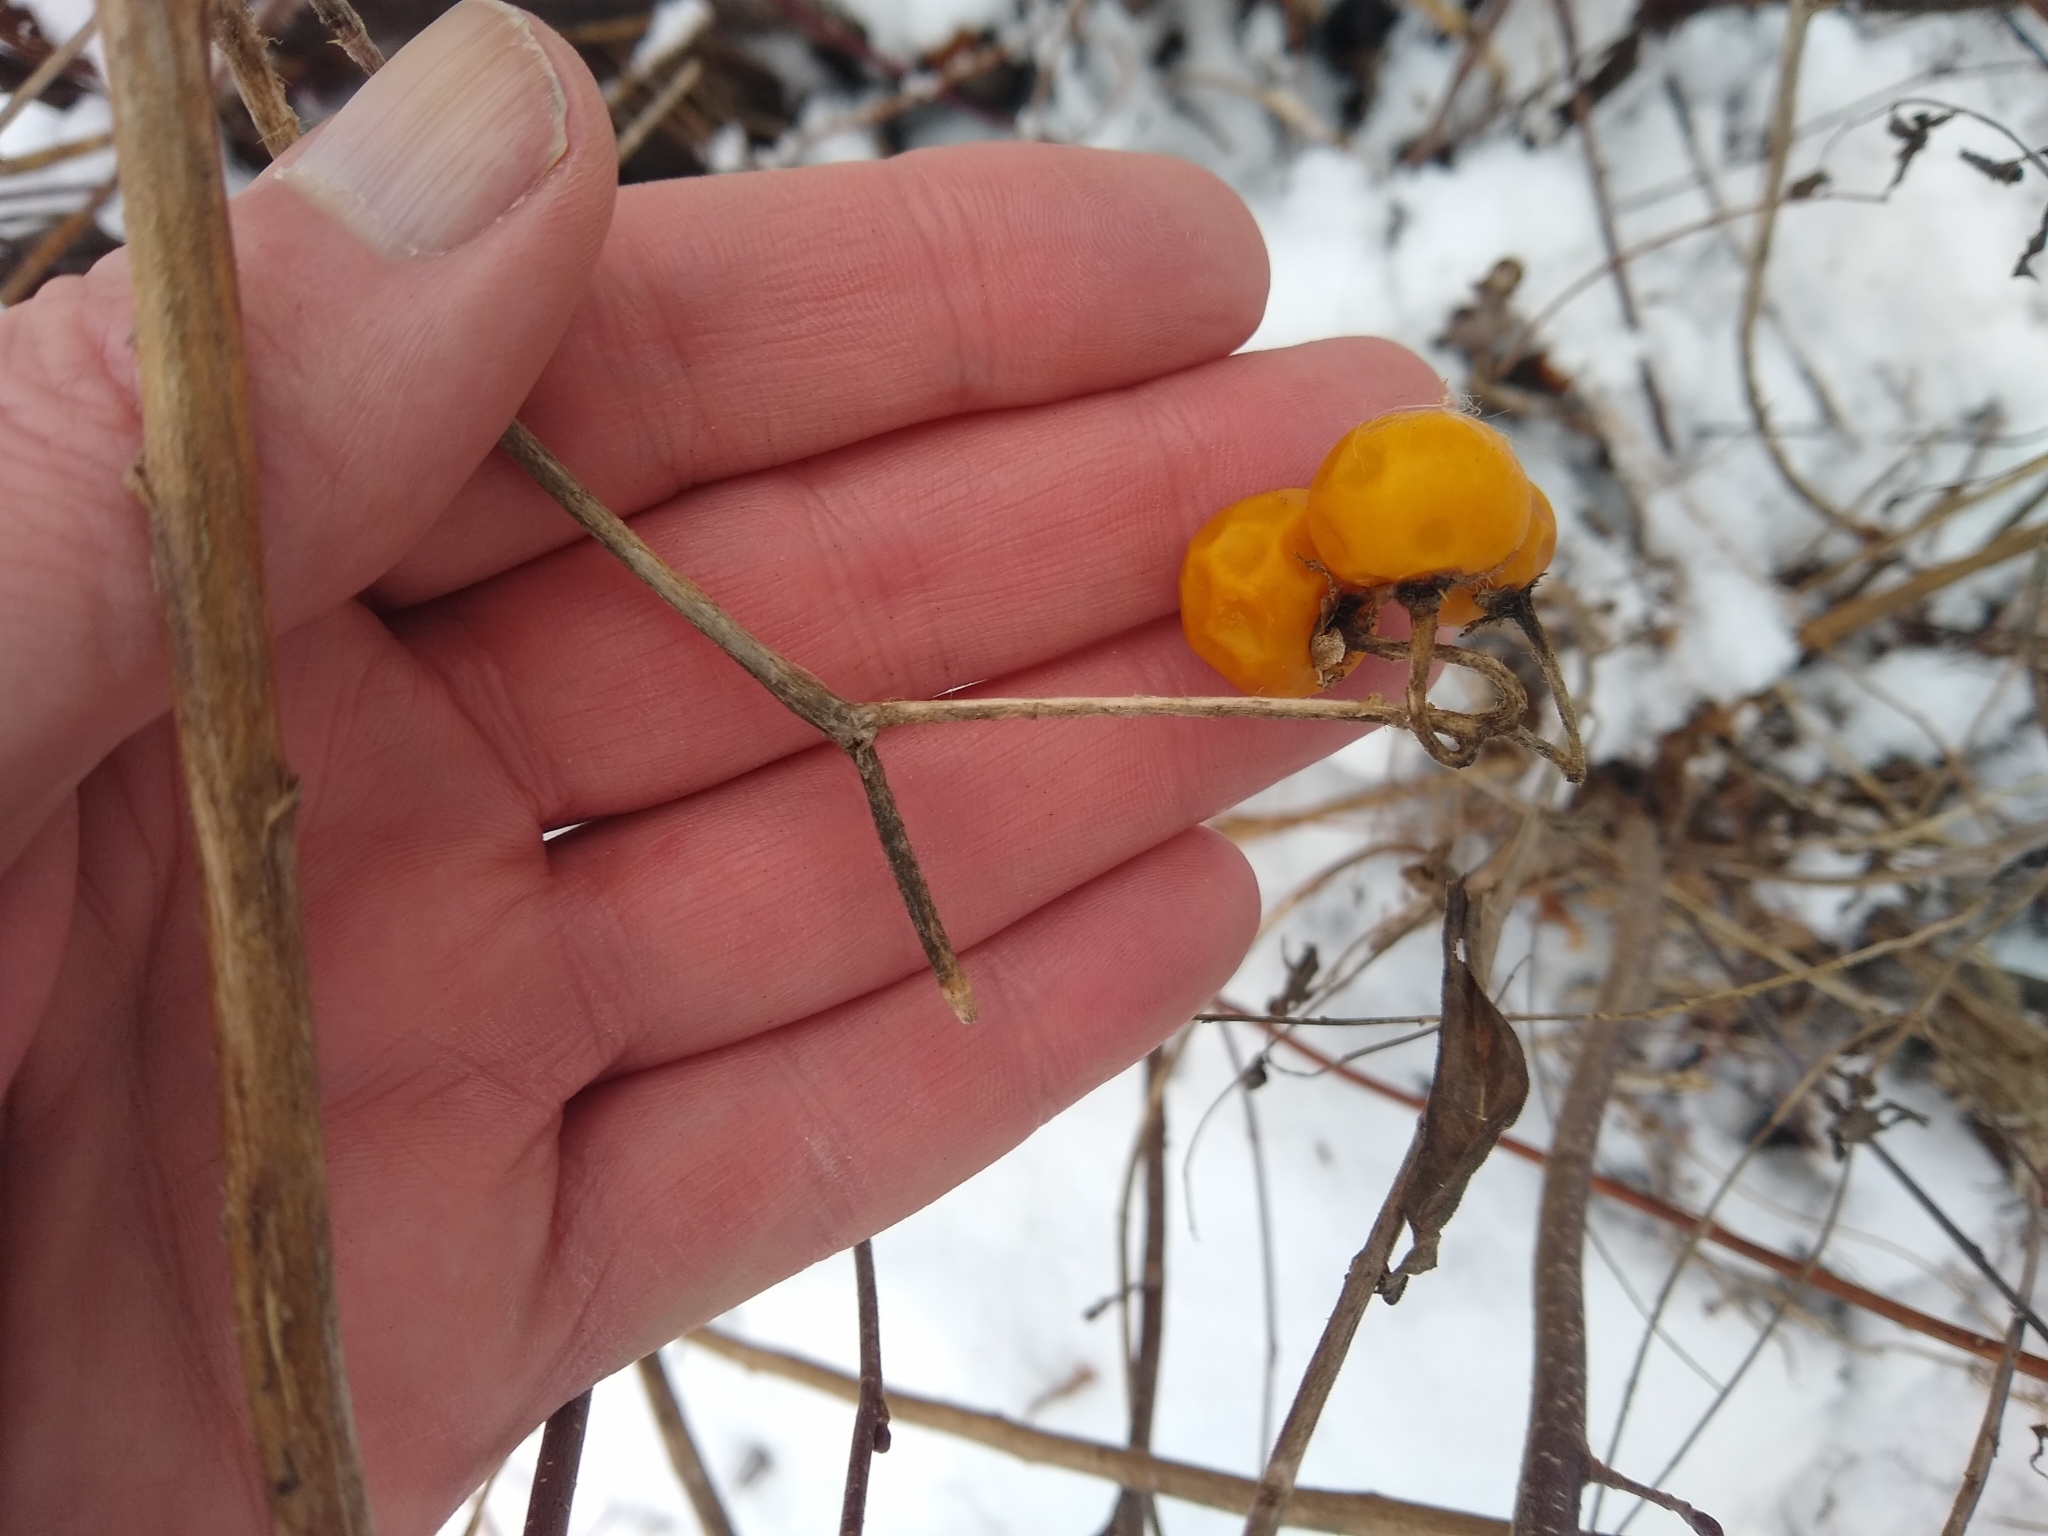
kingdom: Plantae
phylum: Tracheophyta
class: Magnoliopsida
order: Solanales
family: Solanaceae
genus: Solanum
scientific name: Solanum carolinense
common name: Horse-nettle
